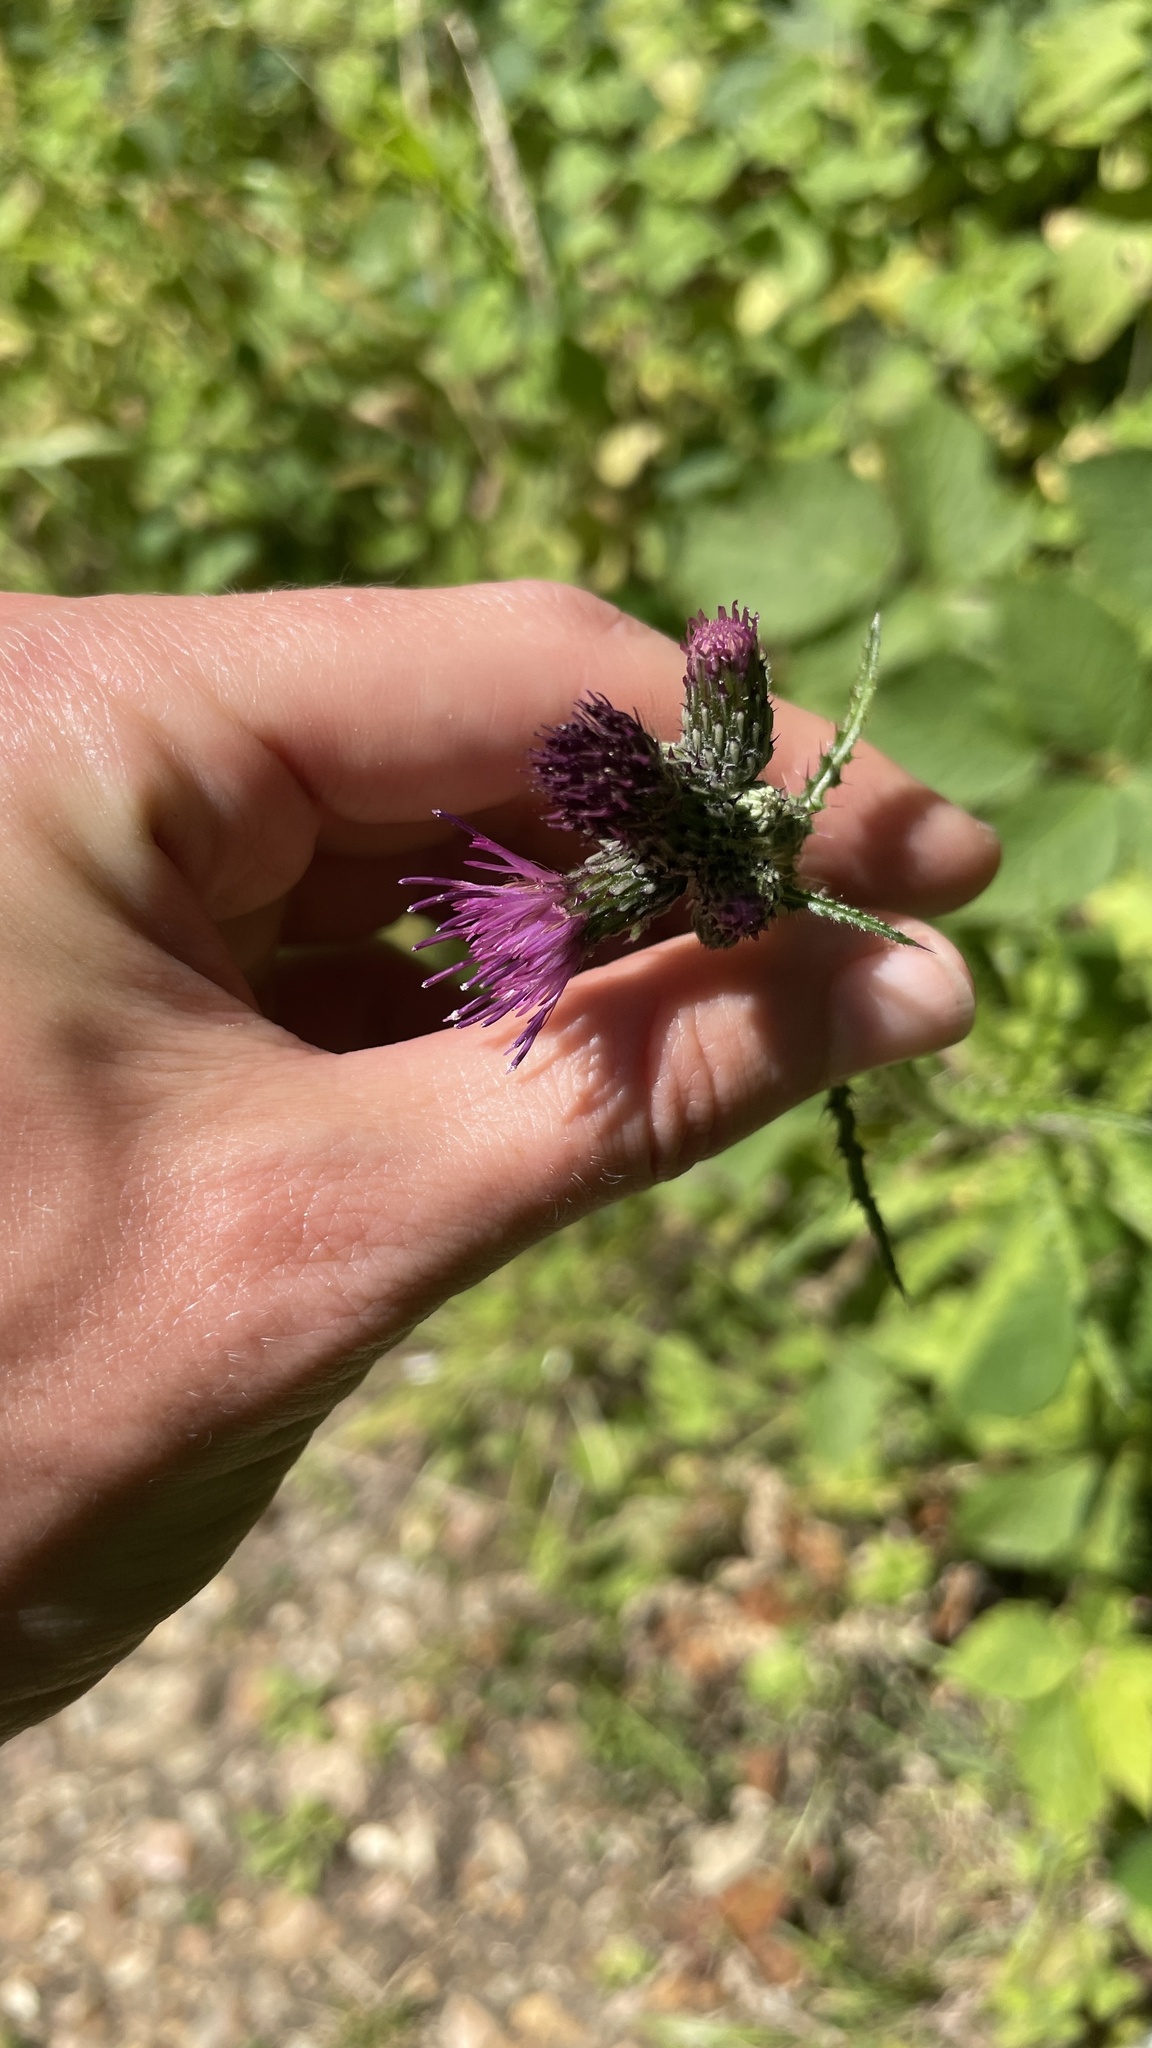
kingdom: Plantae
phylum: Tracheophyta
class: Magnoliopsida
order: Asterales
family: Asteraceae
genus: Cirsium
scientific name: Cirsium palustre
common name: Marsh thistle
